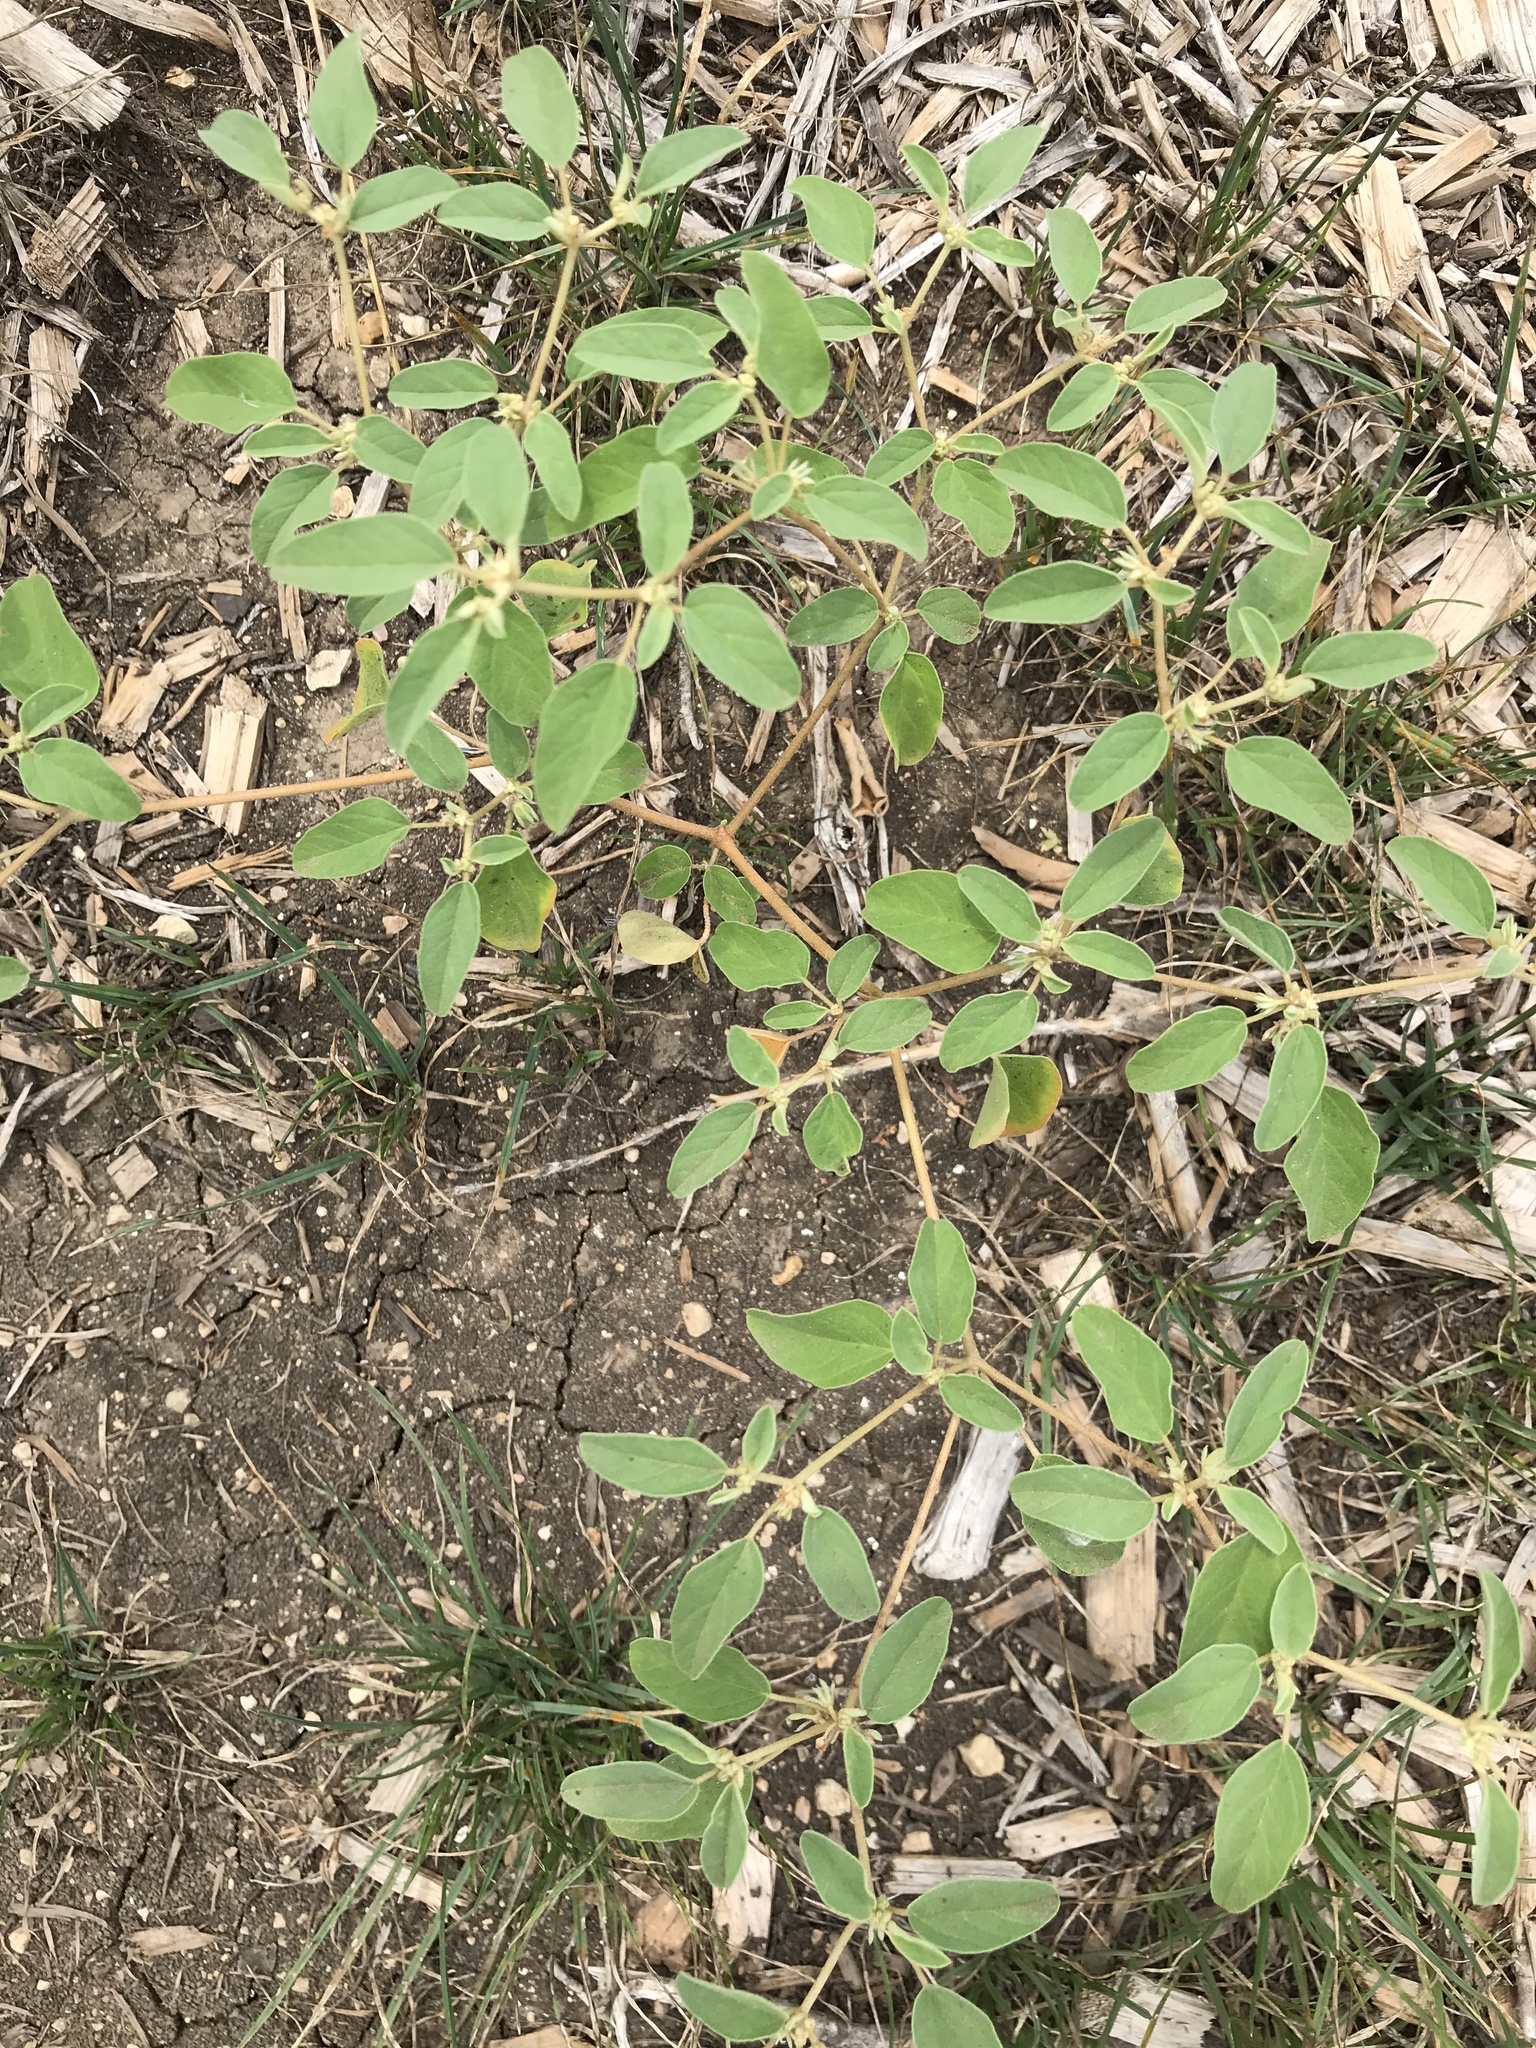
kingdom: Plantae
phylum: Tracheophyta
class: Magnoliopsida
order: Malpighiales
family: Euphorbiaceae
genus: Croton
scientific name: Croton monanthogynus
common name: One-seed croton
